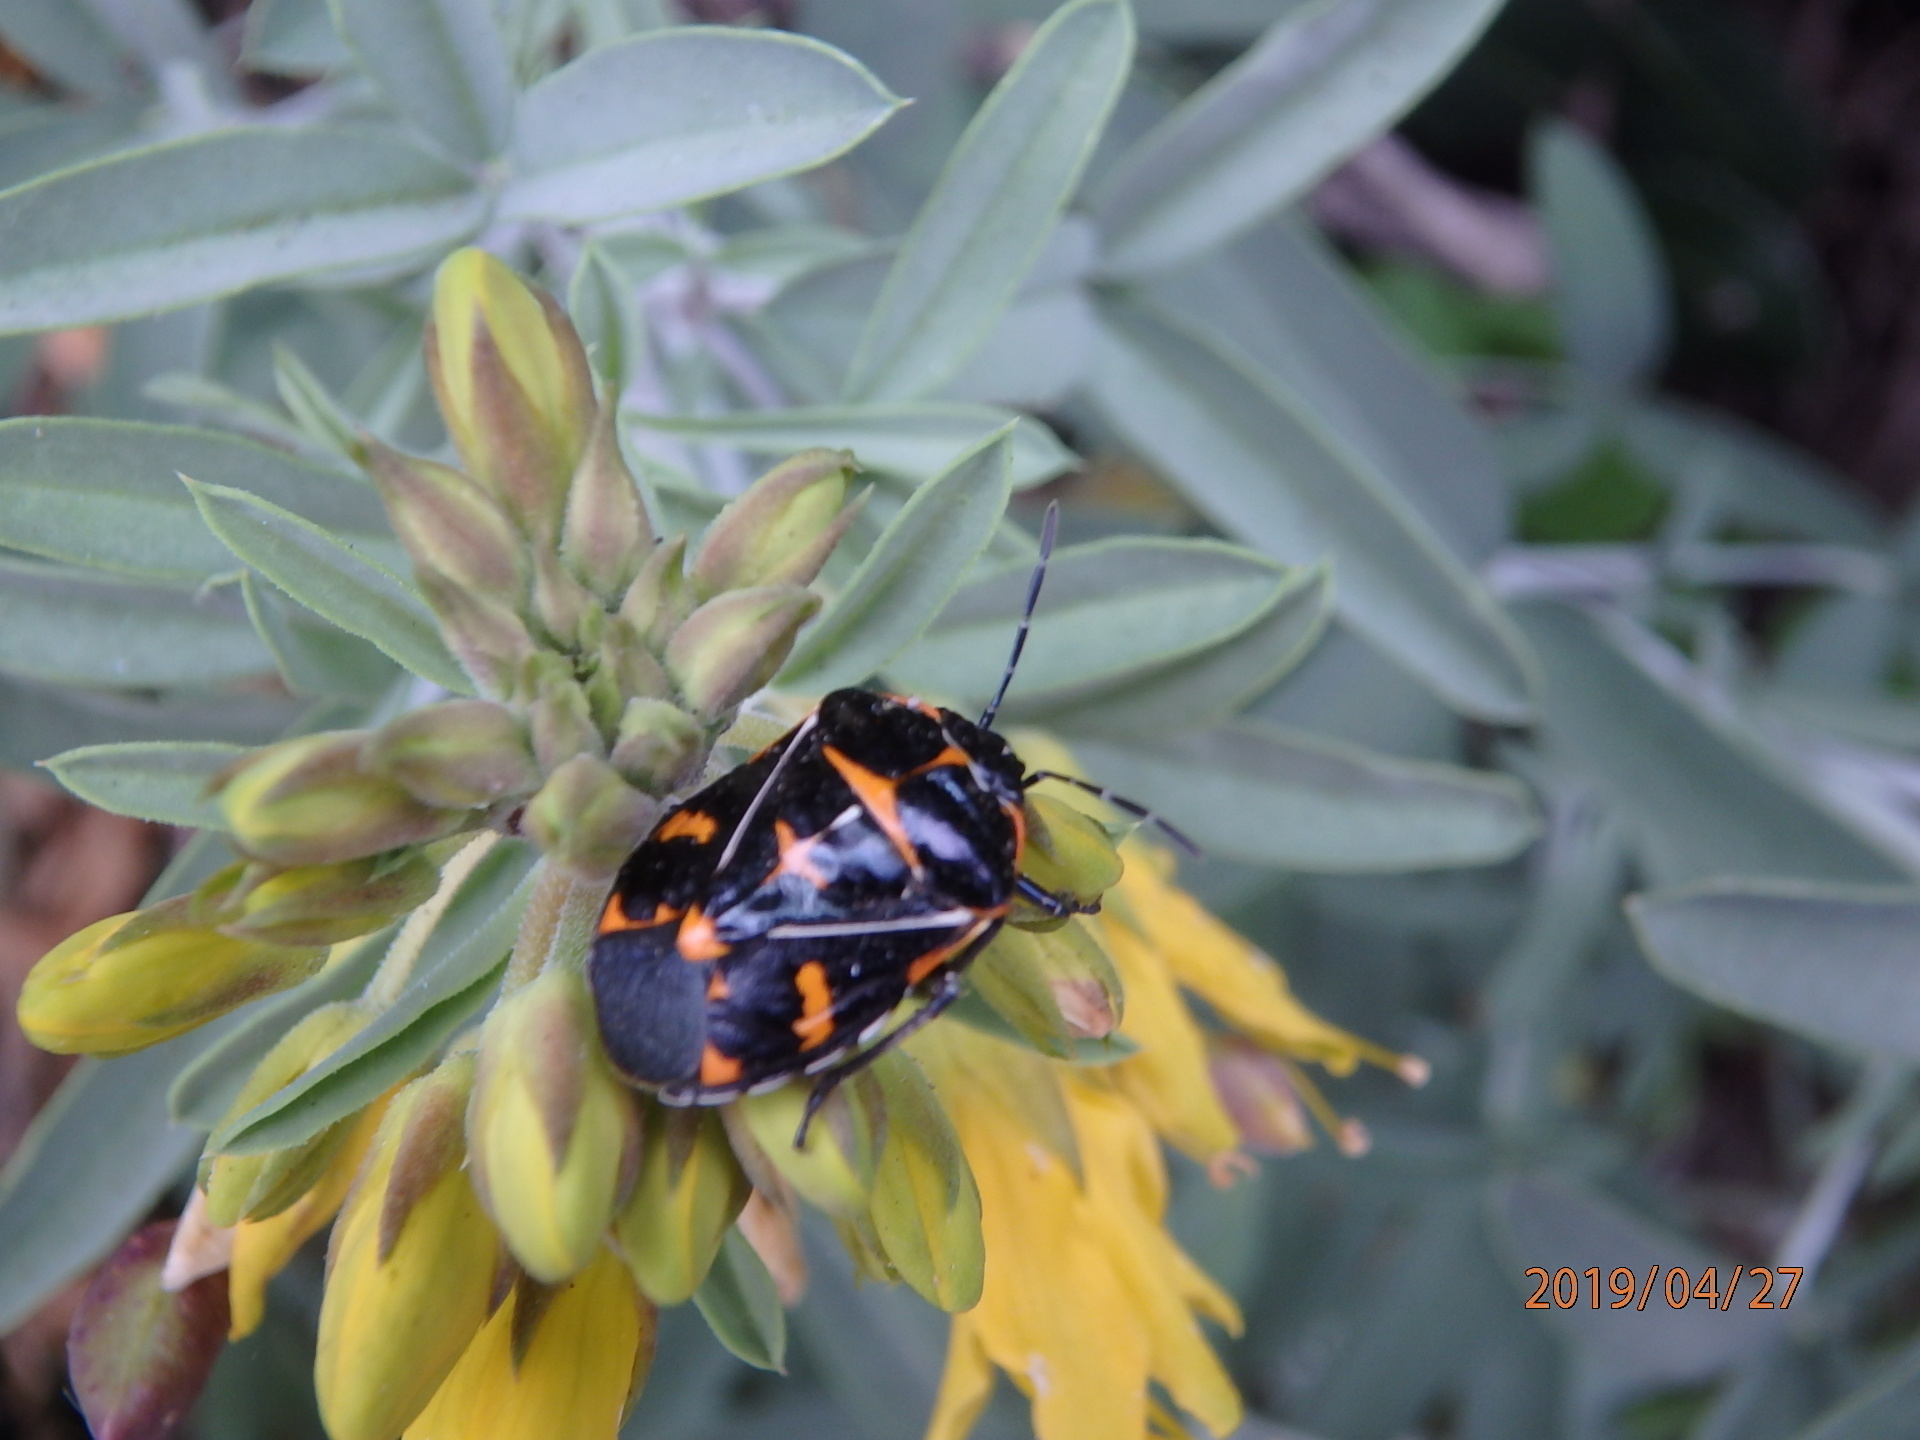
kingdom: Animalia
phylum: Arthropoda
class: Insecta
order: Hemiptera
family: Pentatomidae
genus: Murgantia
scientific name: Murgantia histrionica
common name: Harlequin bug
